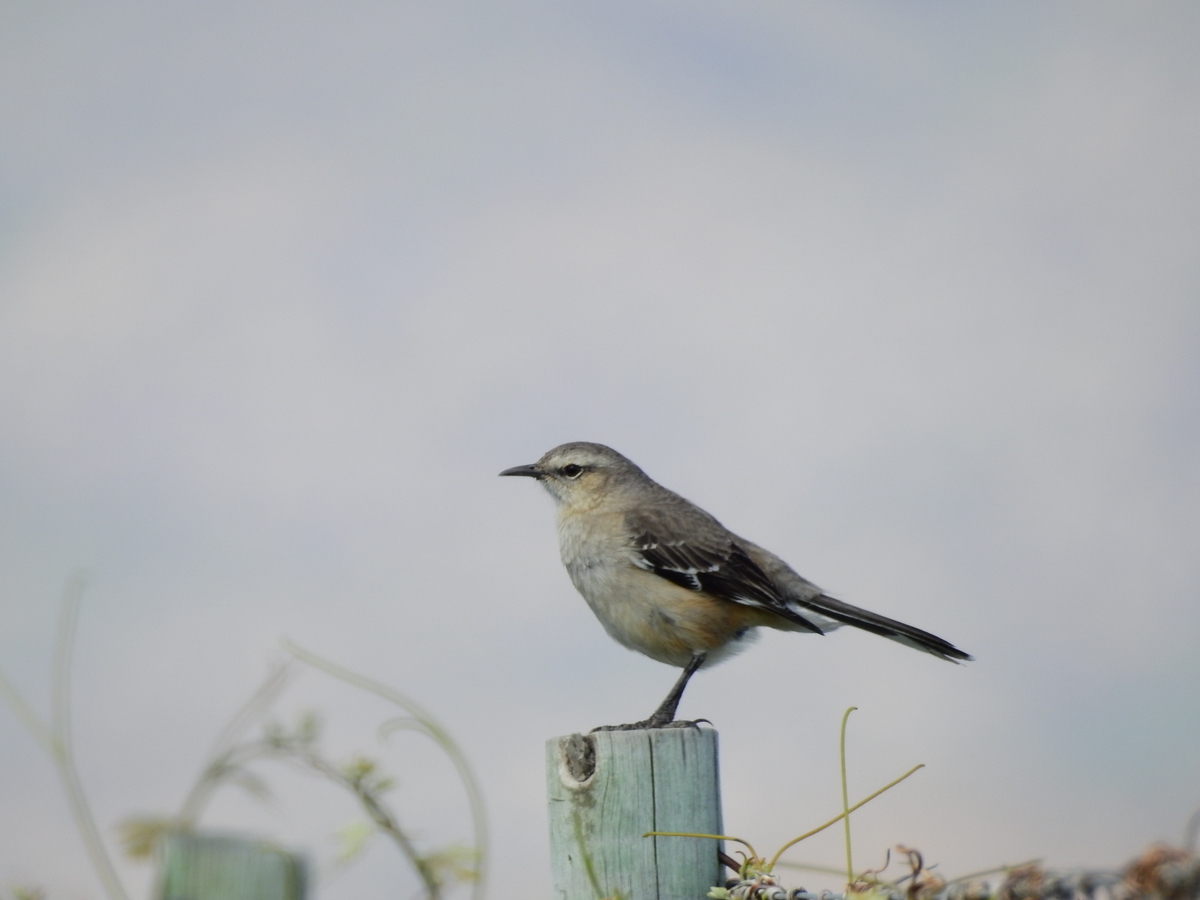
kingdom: Animalia
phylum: Chordata
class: Aves
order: Passeriformes
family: Mimidae
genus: Mimus
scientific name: Mimus patagonicus
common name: Patagonian mockingbird
